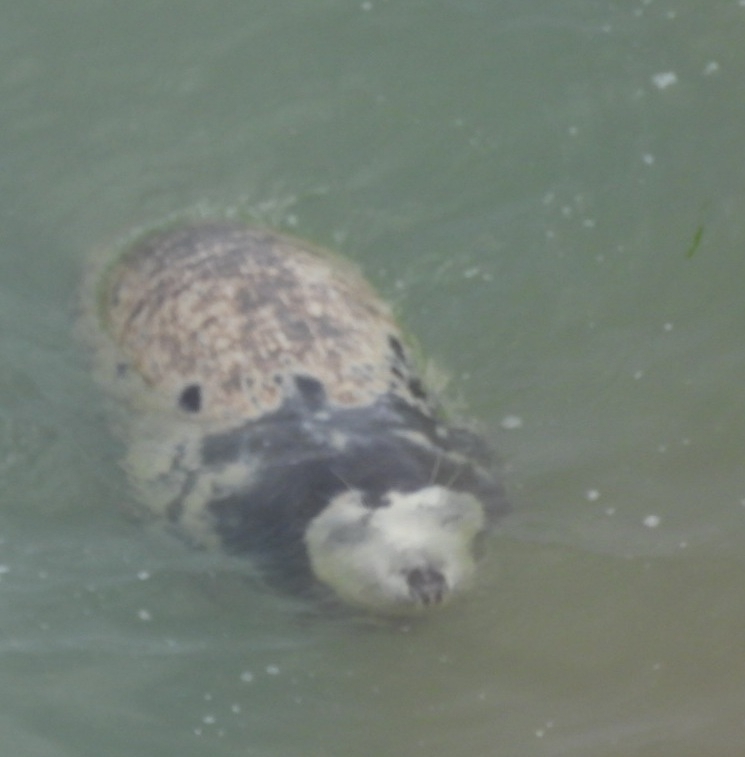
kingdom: Animalia
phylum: Chordata
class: Mammalia
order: Carnivora
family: Phocidae
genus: Halichoerus
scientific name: Halichoerus grypus
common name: Grey seal
